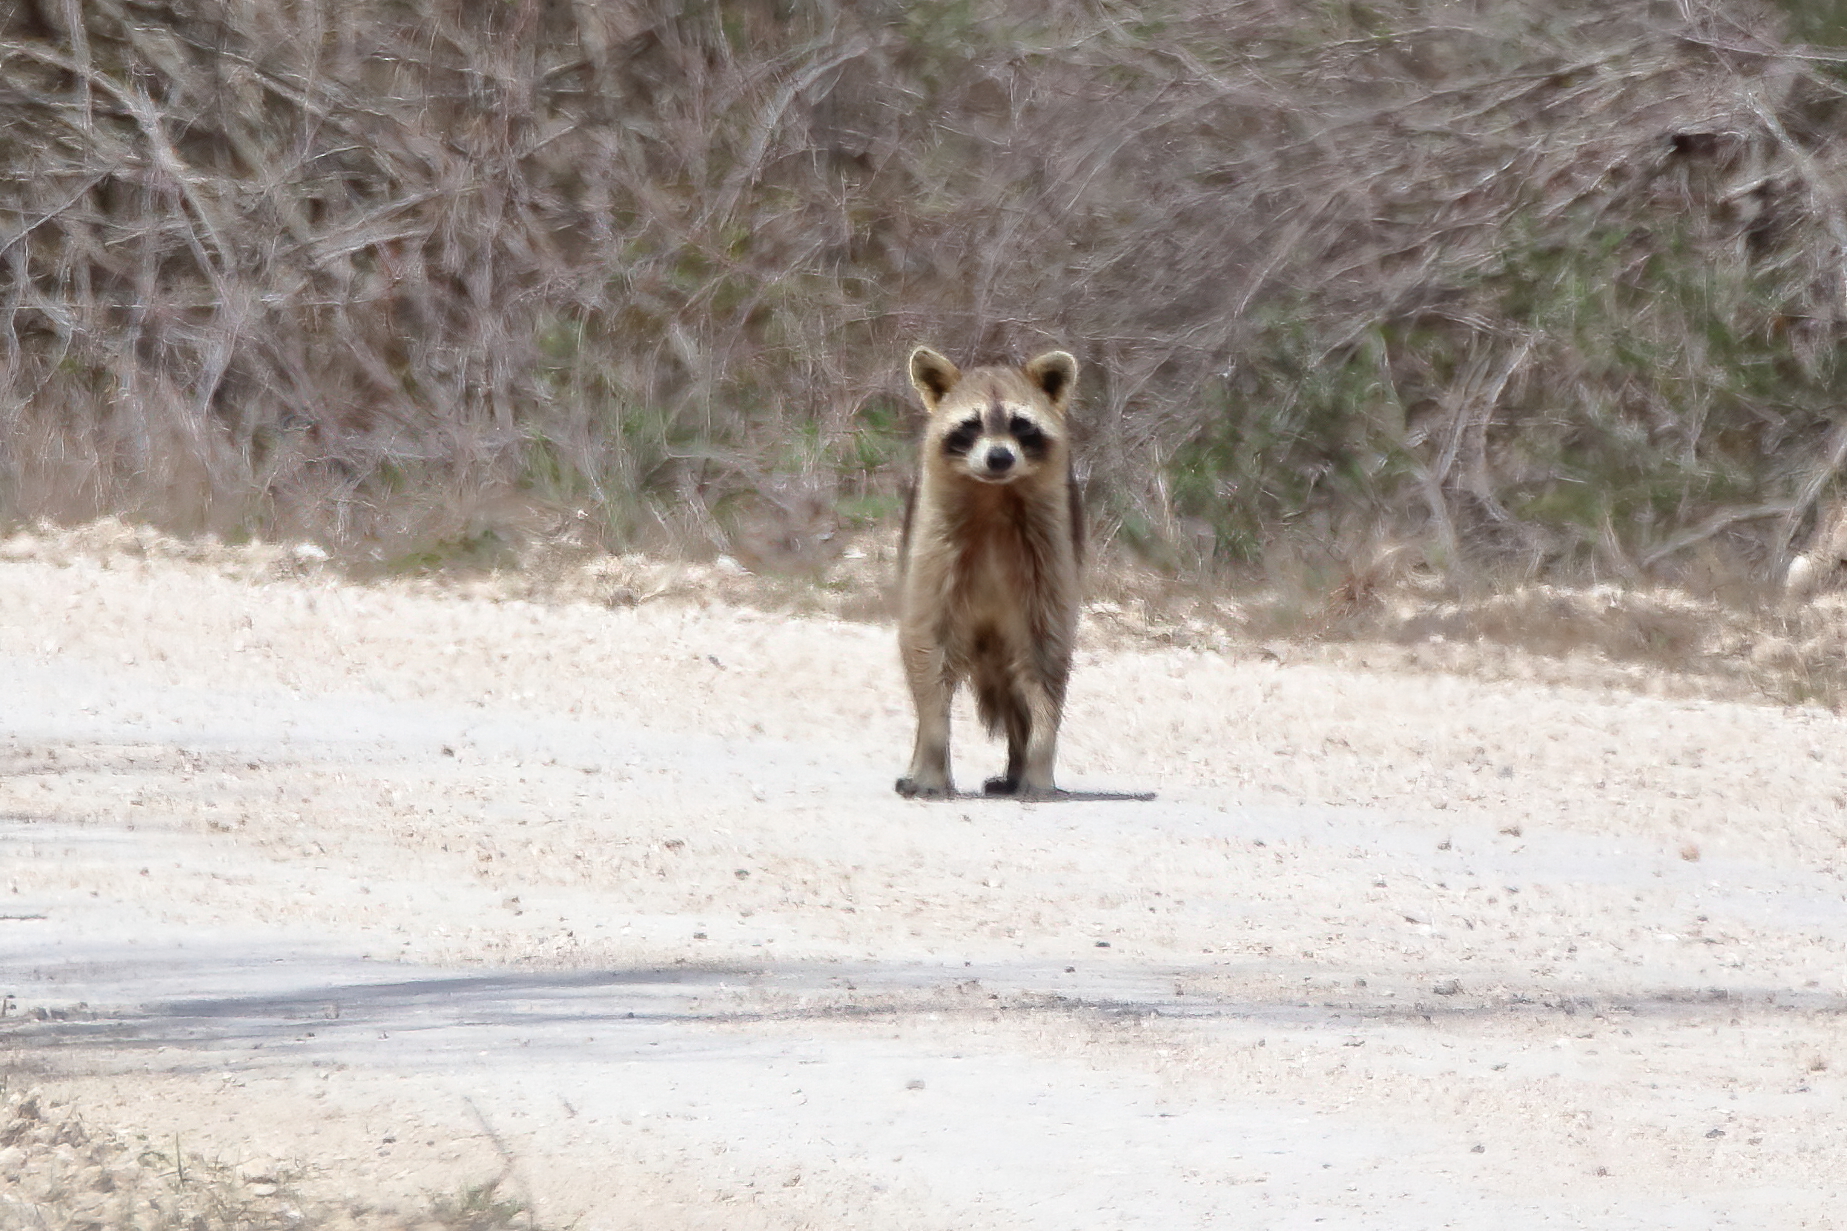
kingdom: Animalia
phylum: Chordata
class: Mammalia
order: Carnivora
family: Procyonidae
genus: Procyon
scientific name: Procyon lotor
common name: Raccoon
